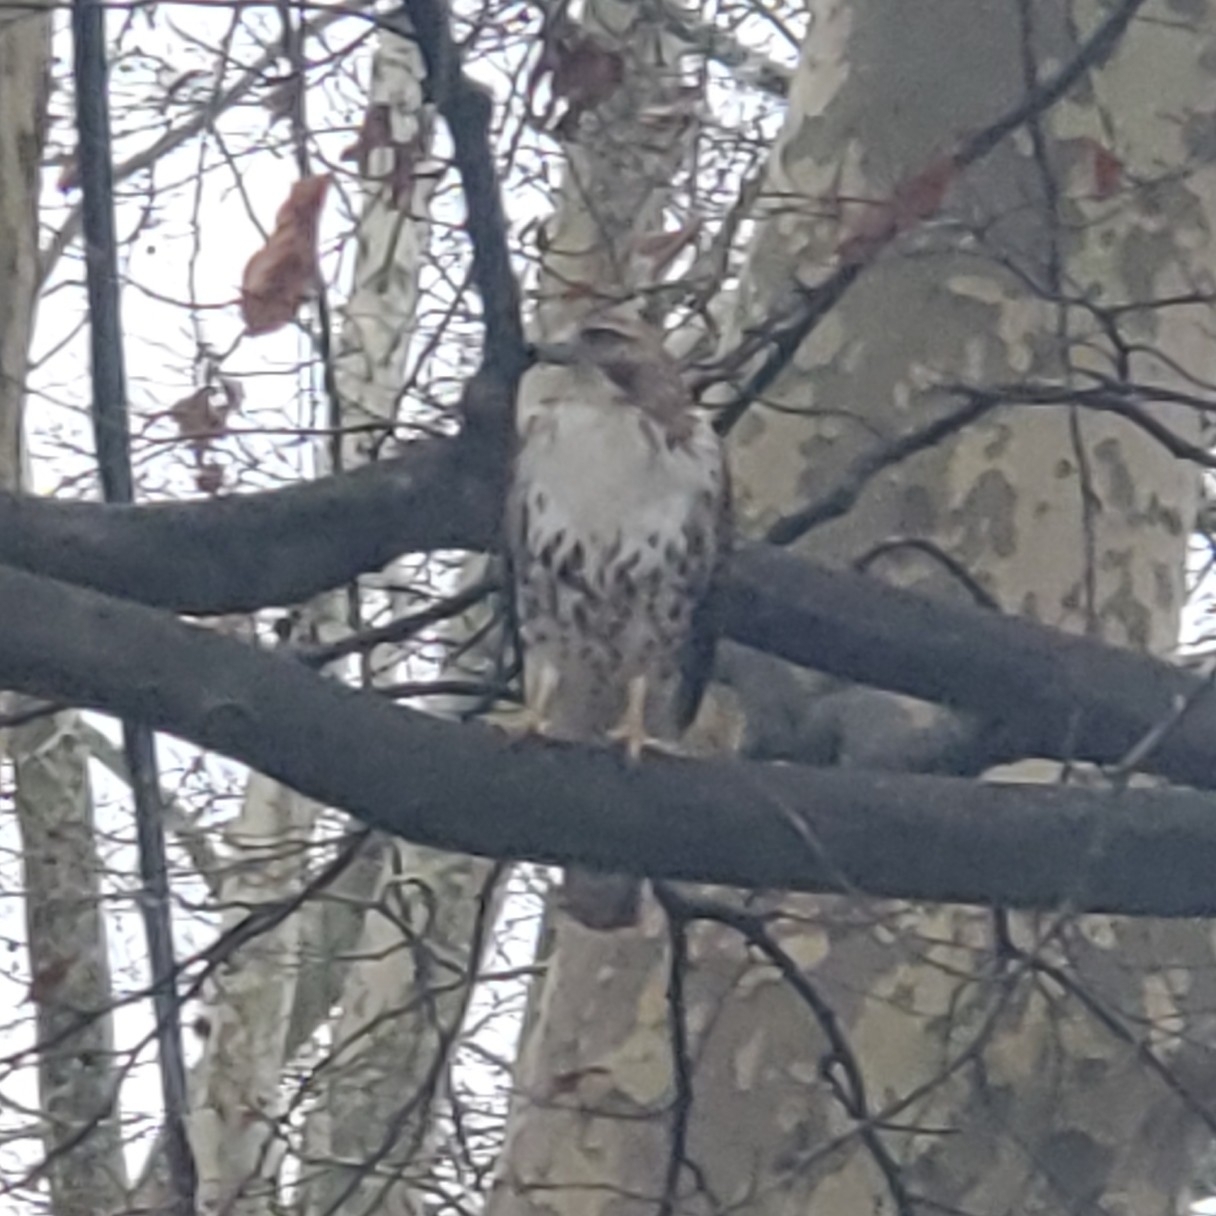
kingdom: Animalia
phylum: Chordata
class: Aves
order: Accipitriformes
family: Accipitridae
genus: Buteo
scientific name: Buteo jamaicensis
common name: Red-tailed hawk
